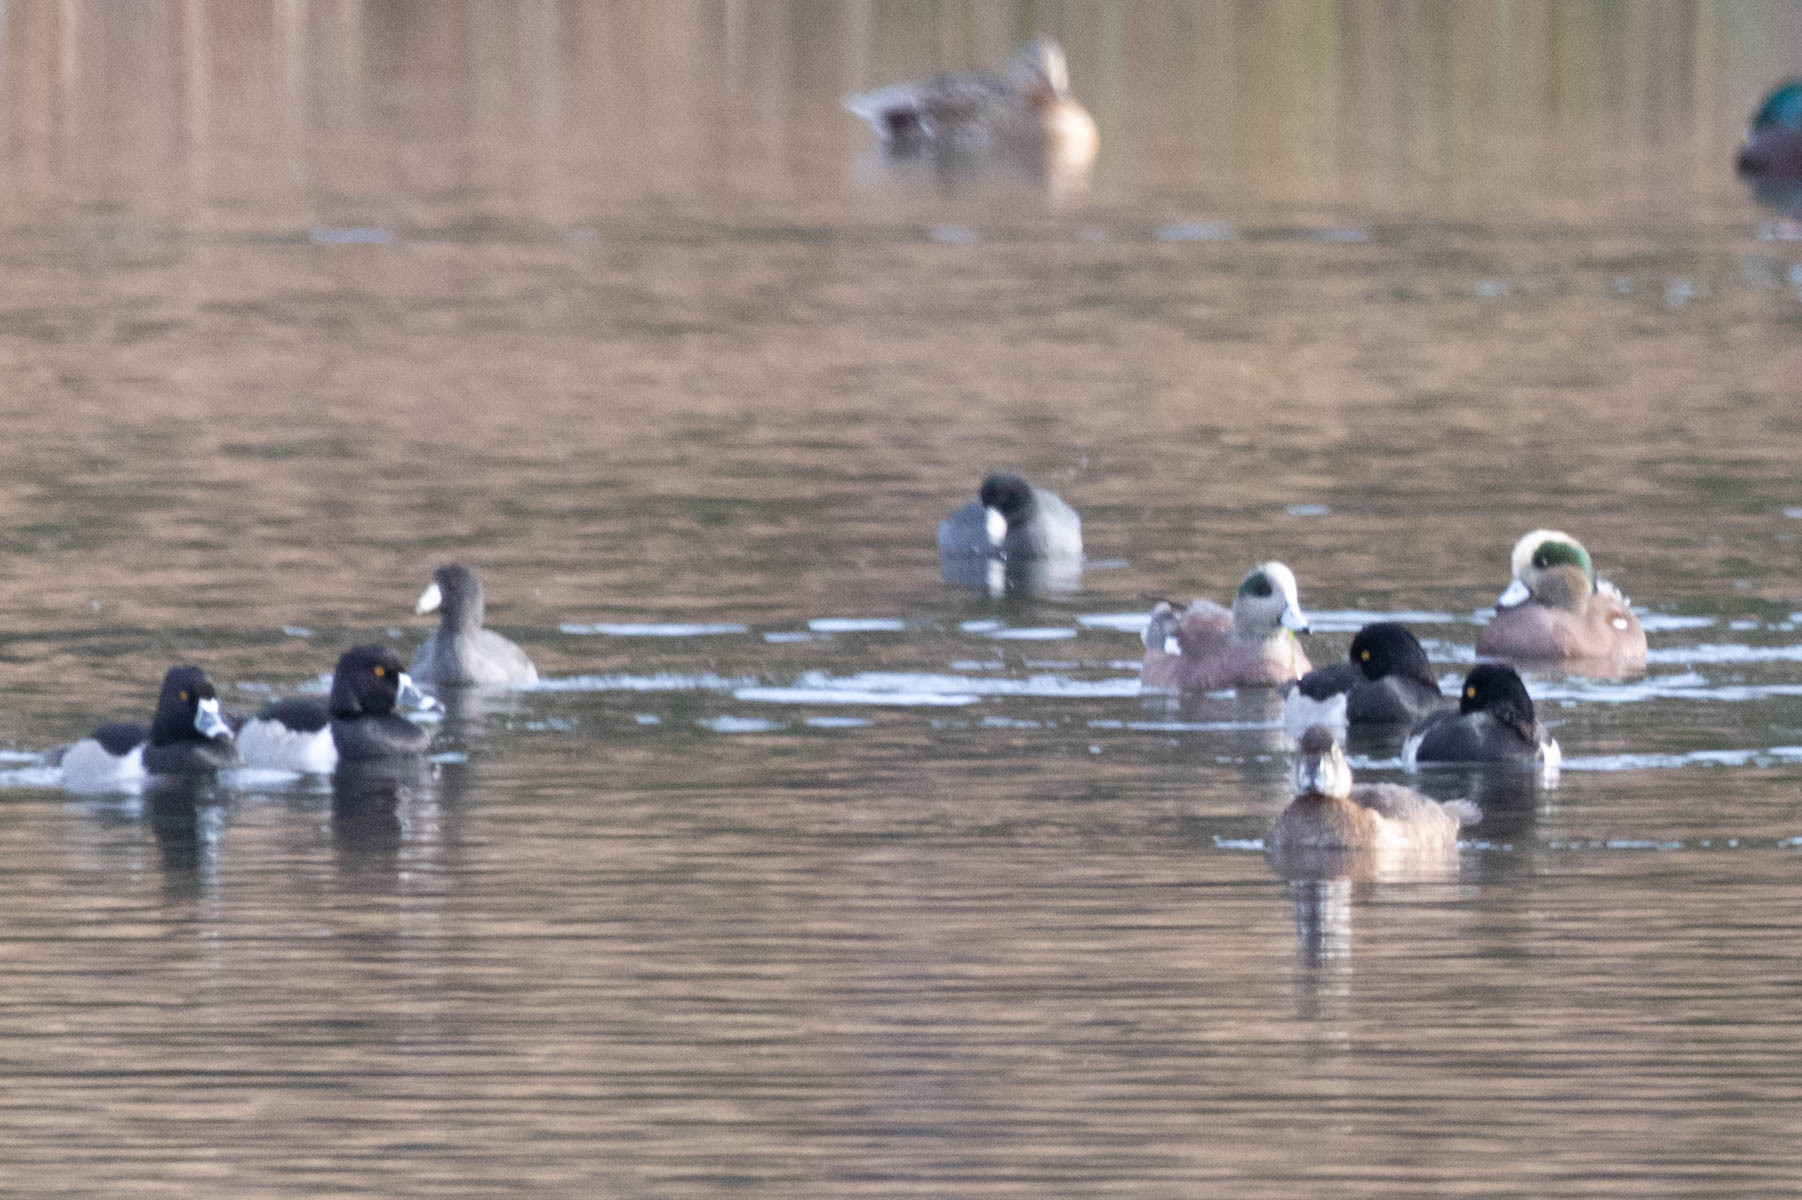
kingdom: Animalia
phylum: Chordata
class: Aves
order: Anseriformes
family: Anatidae
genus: Aythya
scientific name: Aythya collaris
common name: Ring-necked duck
